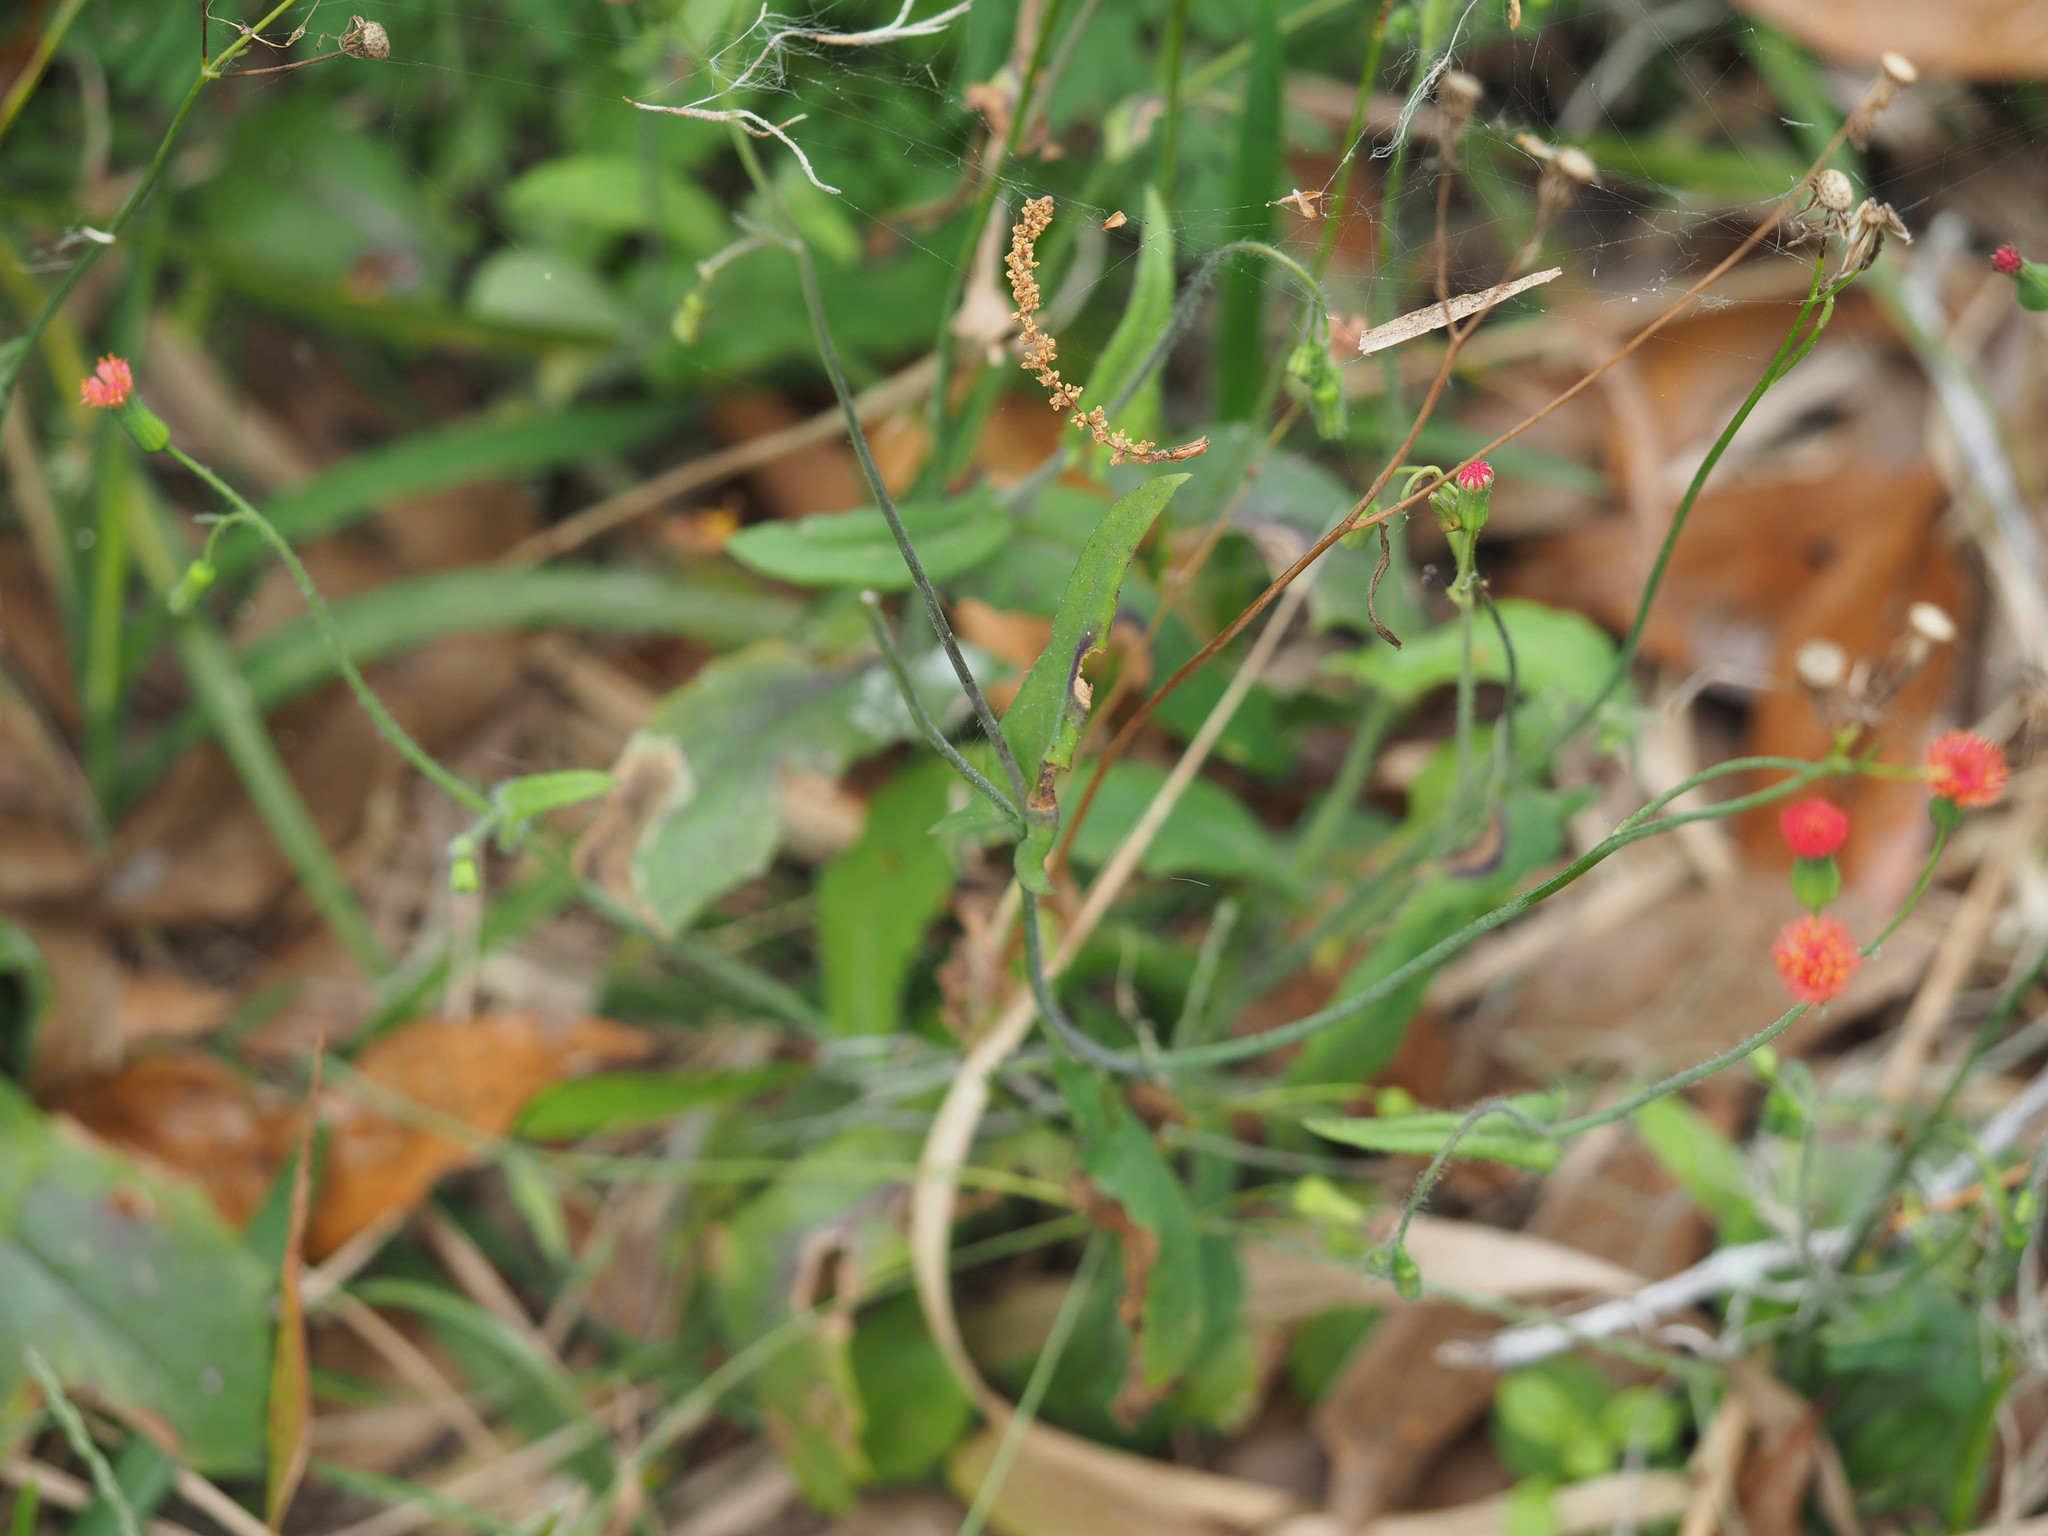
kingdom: Plantae
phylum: Tracheophyta
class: Magnoliopsida
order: Asterales
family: Asteraceae
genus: Emilia
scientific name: Emilia fosbergii
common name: Florida tasselflower
